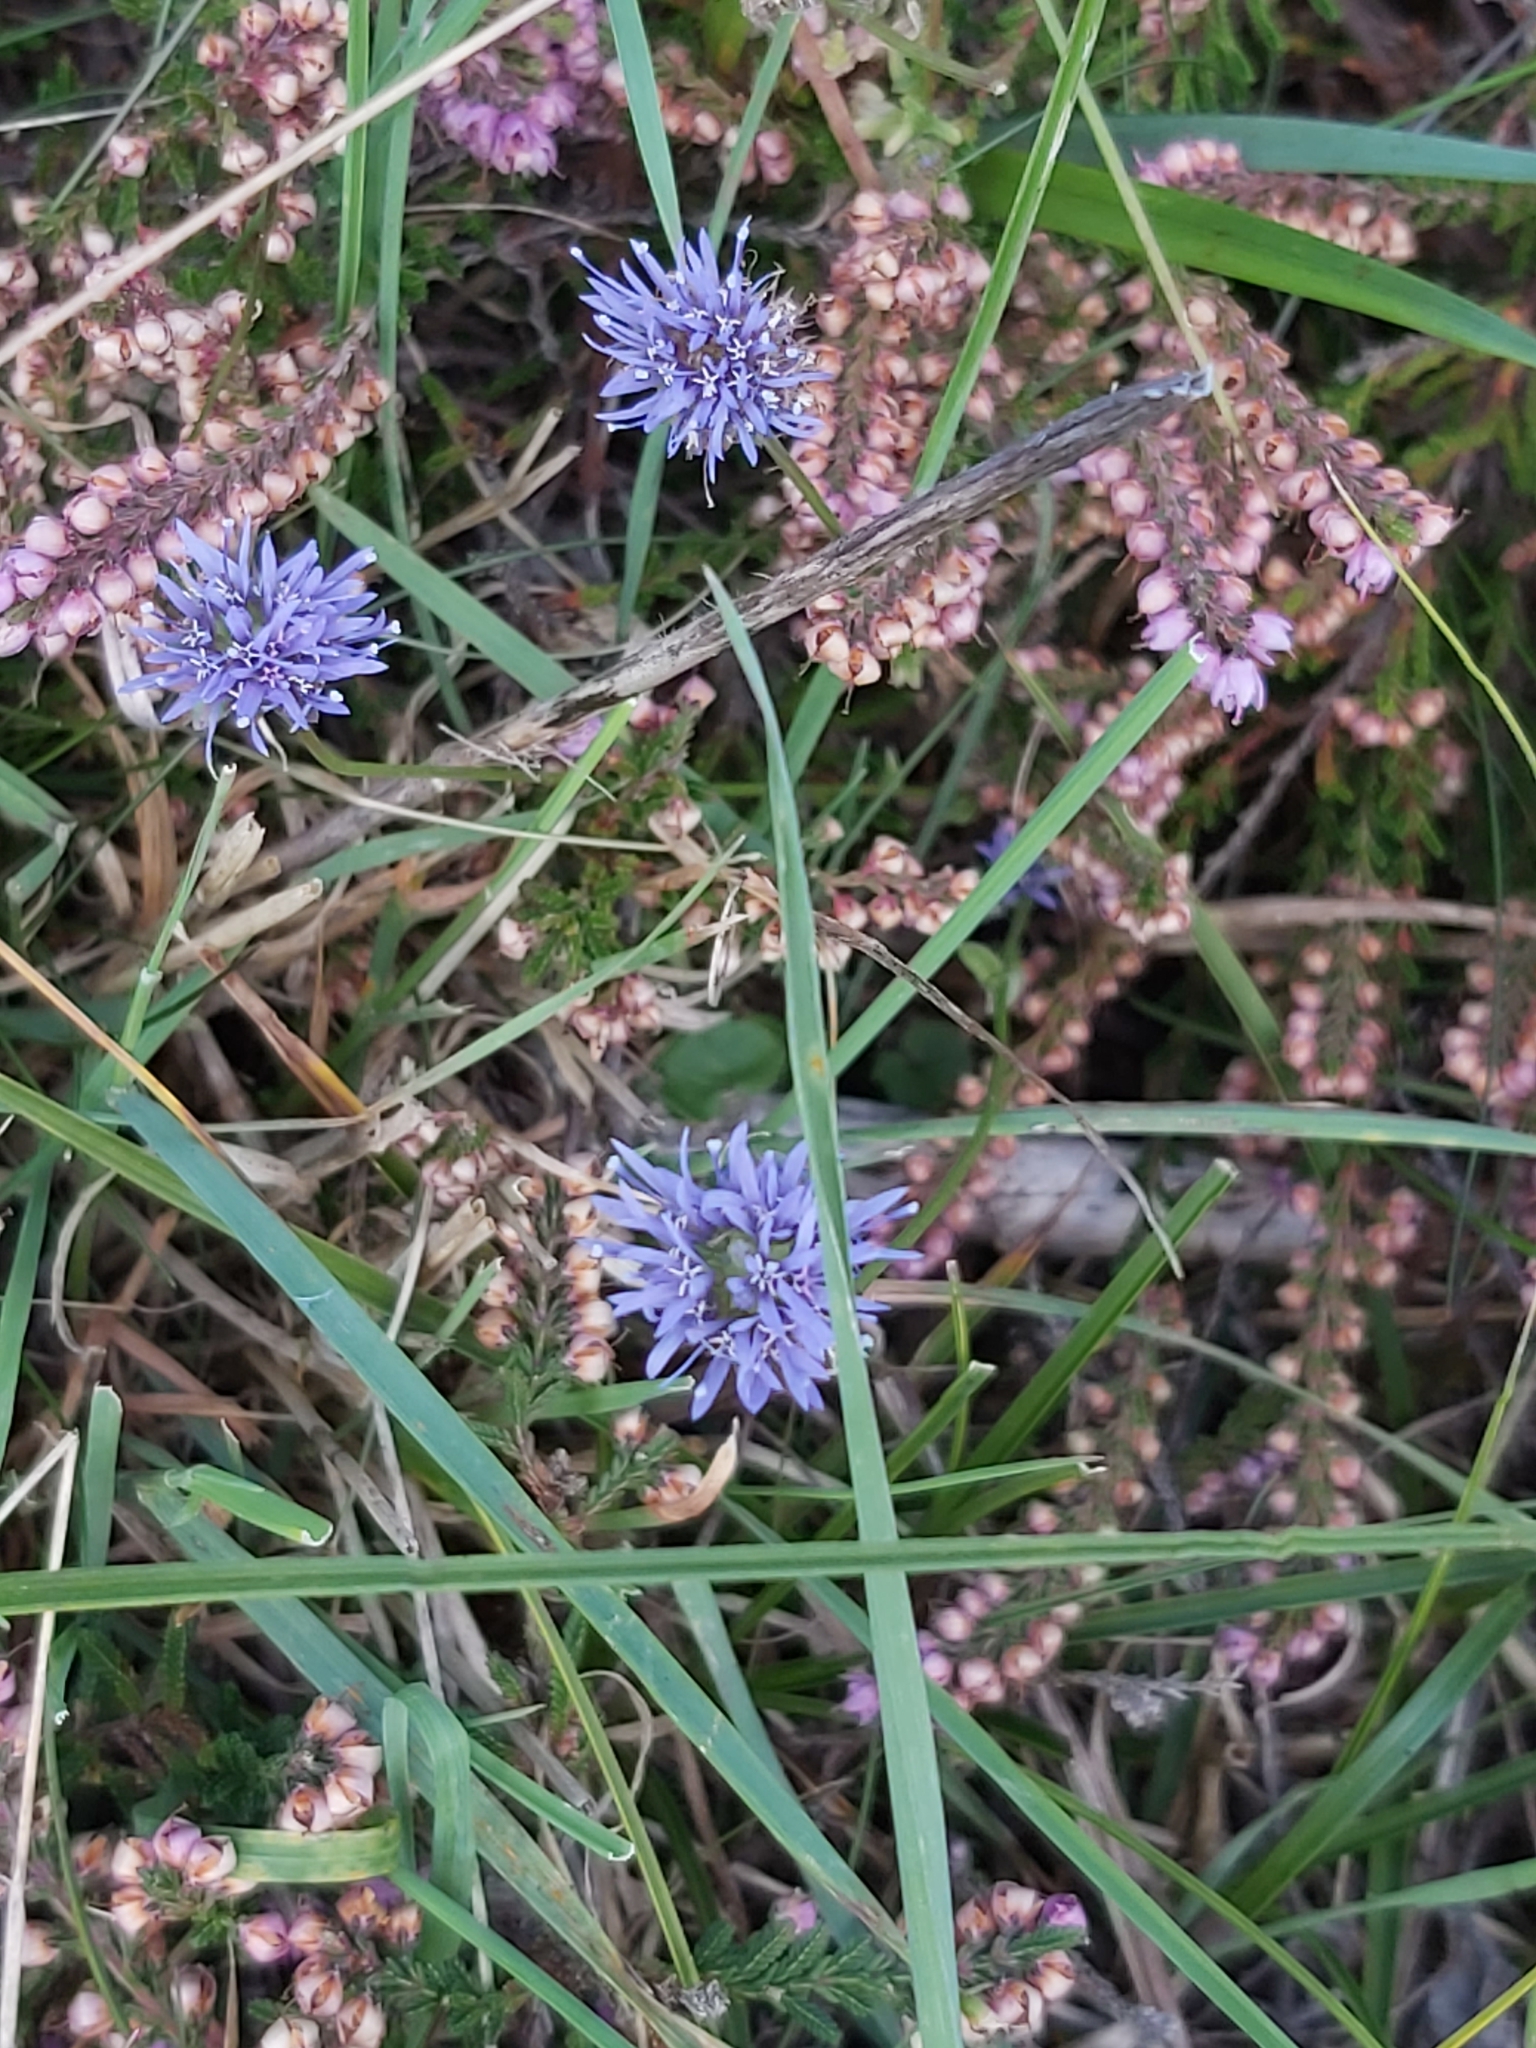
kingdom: Plantae
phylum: Tracheophyta
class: Magnoliopsida
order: Asterales
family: Campanulaceae
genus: Jasione
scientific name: Jasione montana
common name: Sheep's-bit
